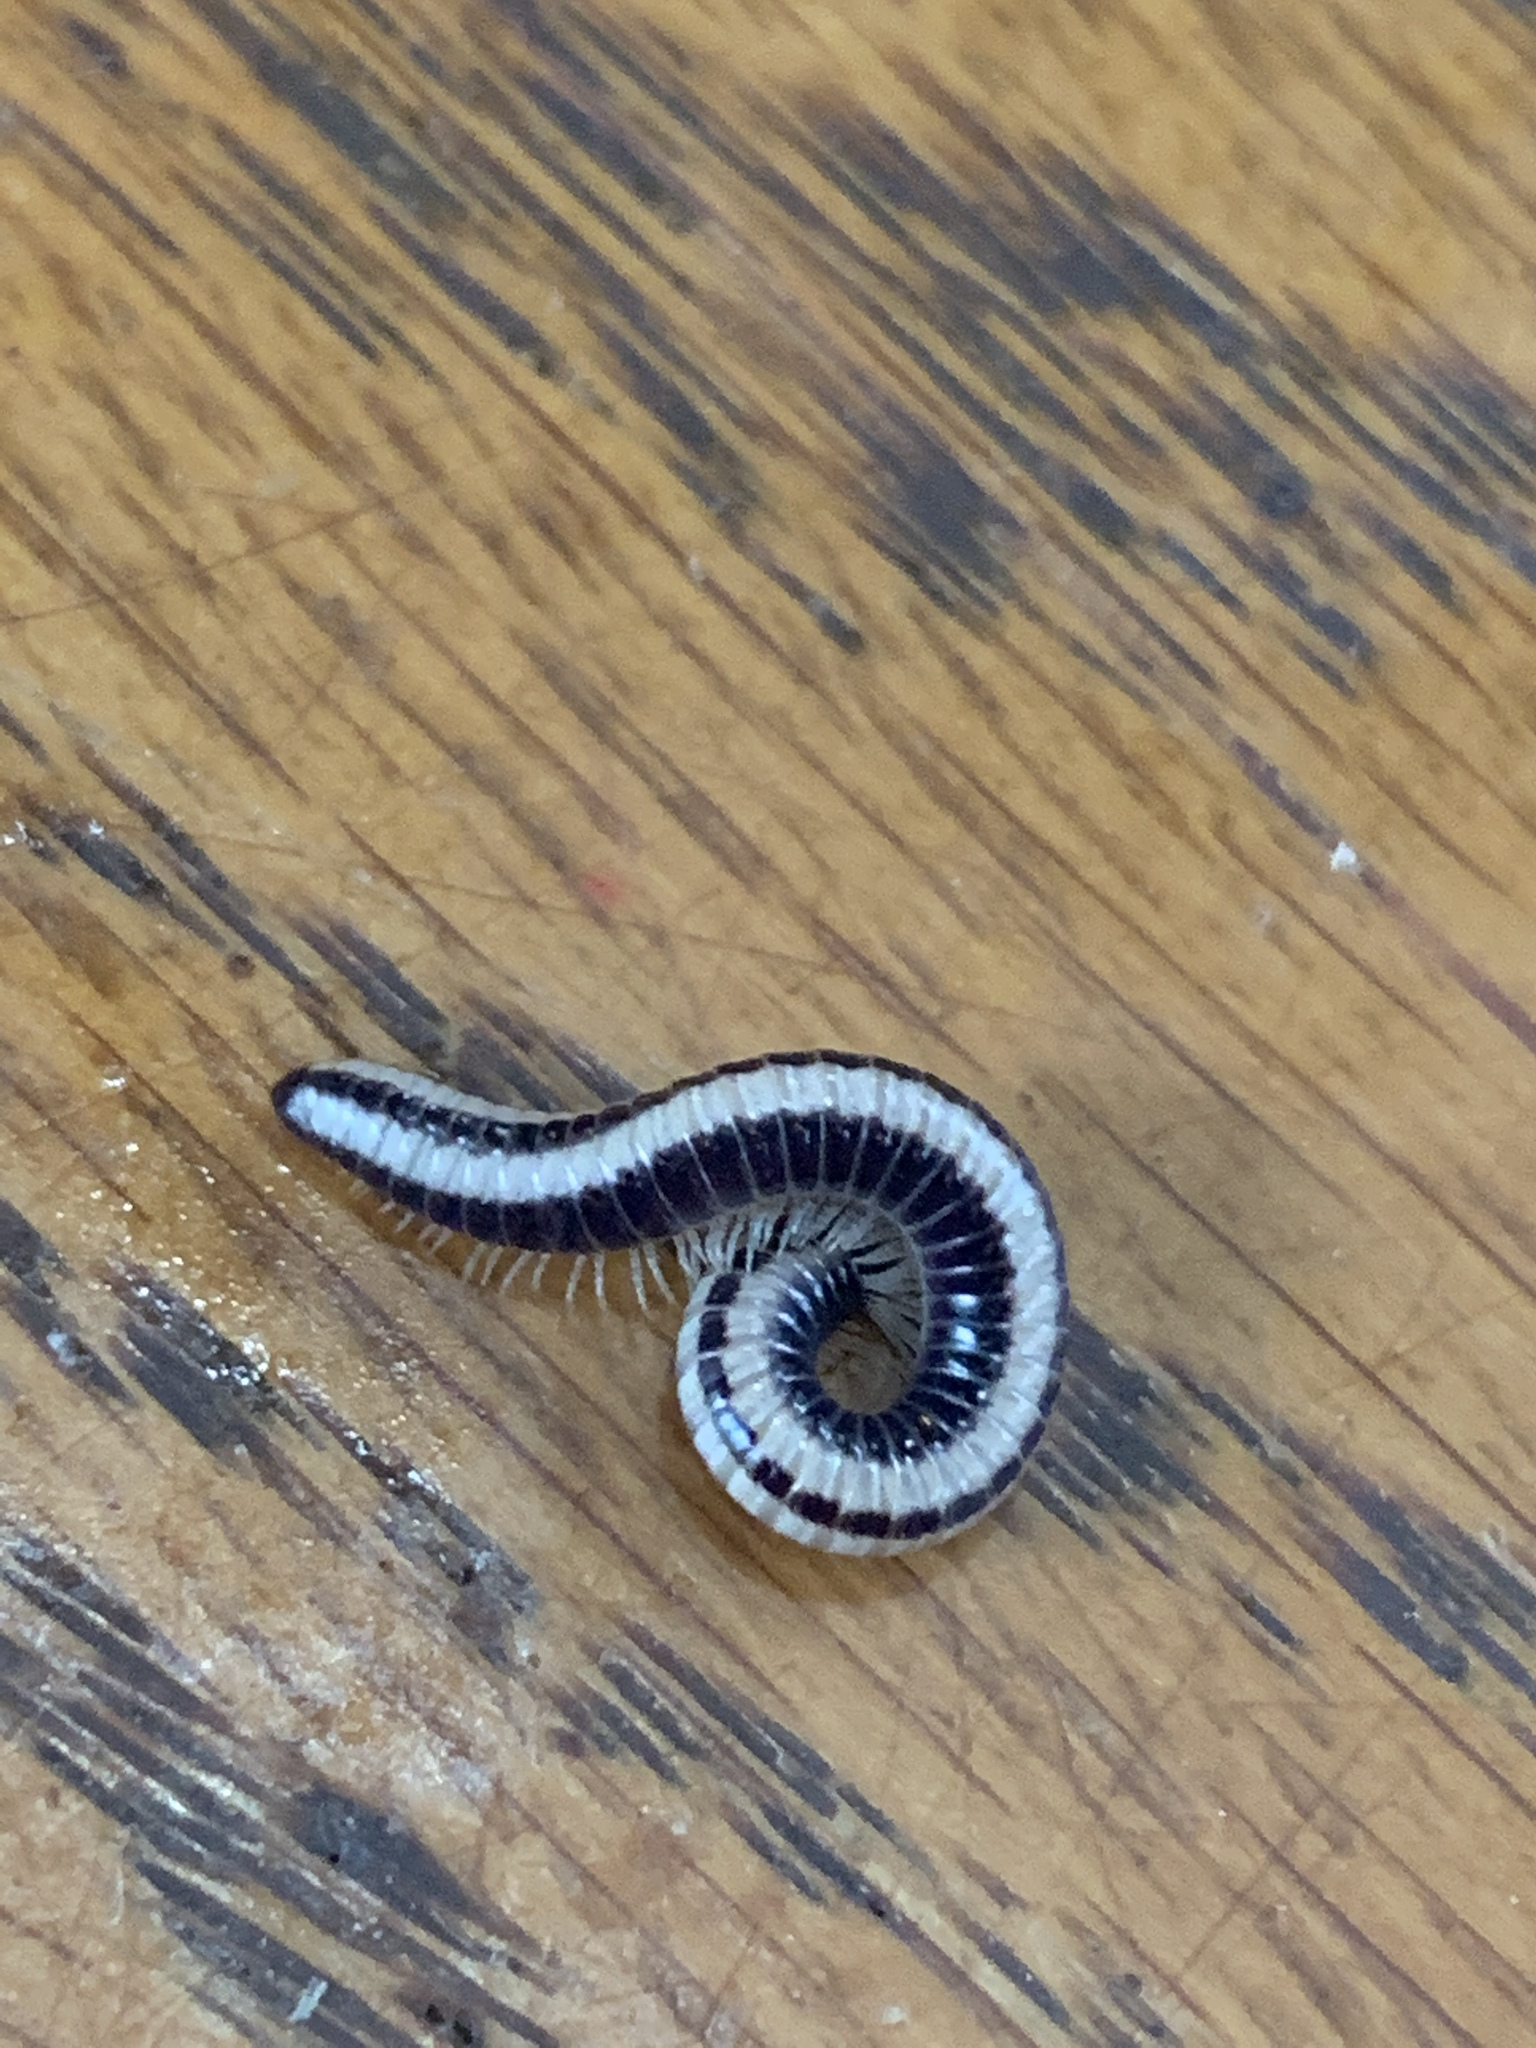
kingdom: Animalia
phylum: Arthropoda
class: Diplopoda
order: Spirobolida
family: Spirobolellidae
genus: Spirobolellus
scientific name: Spirobolellus immigrans
